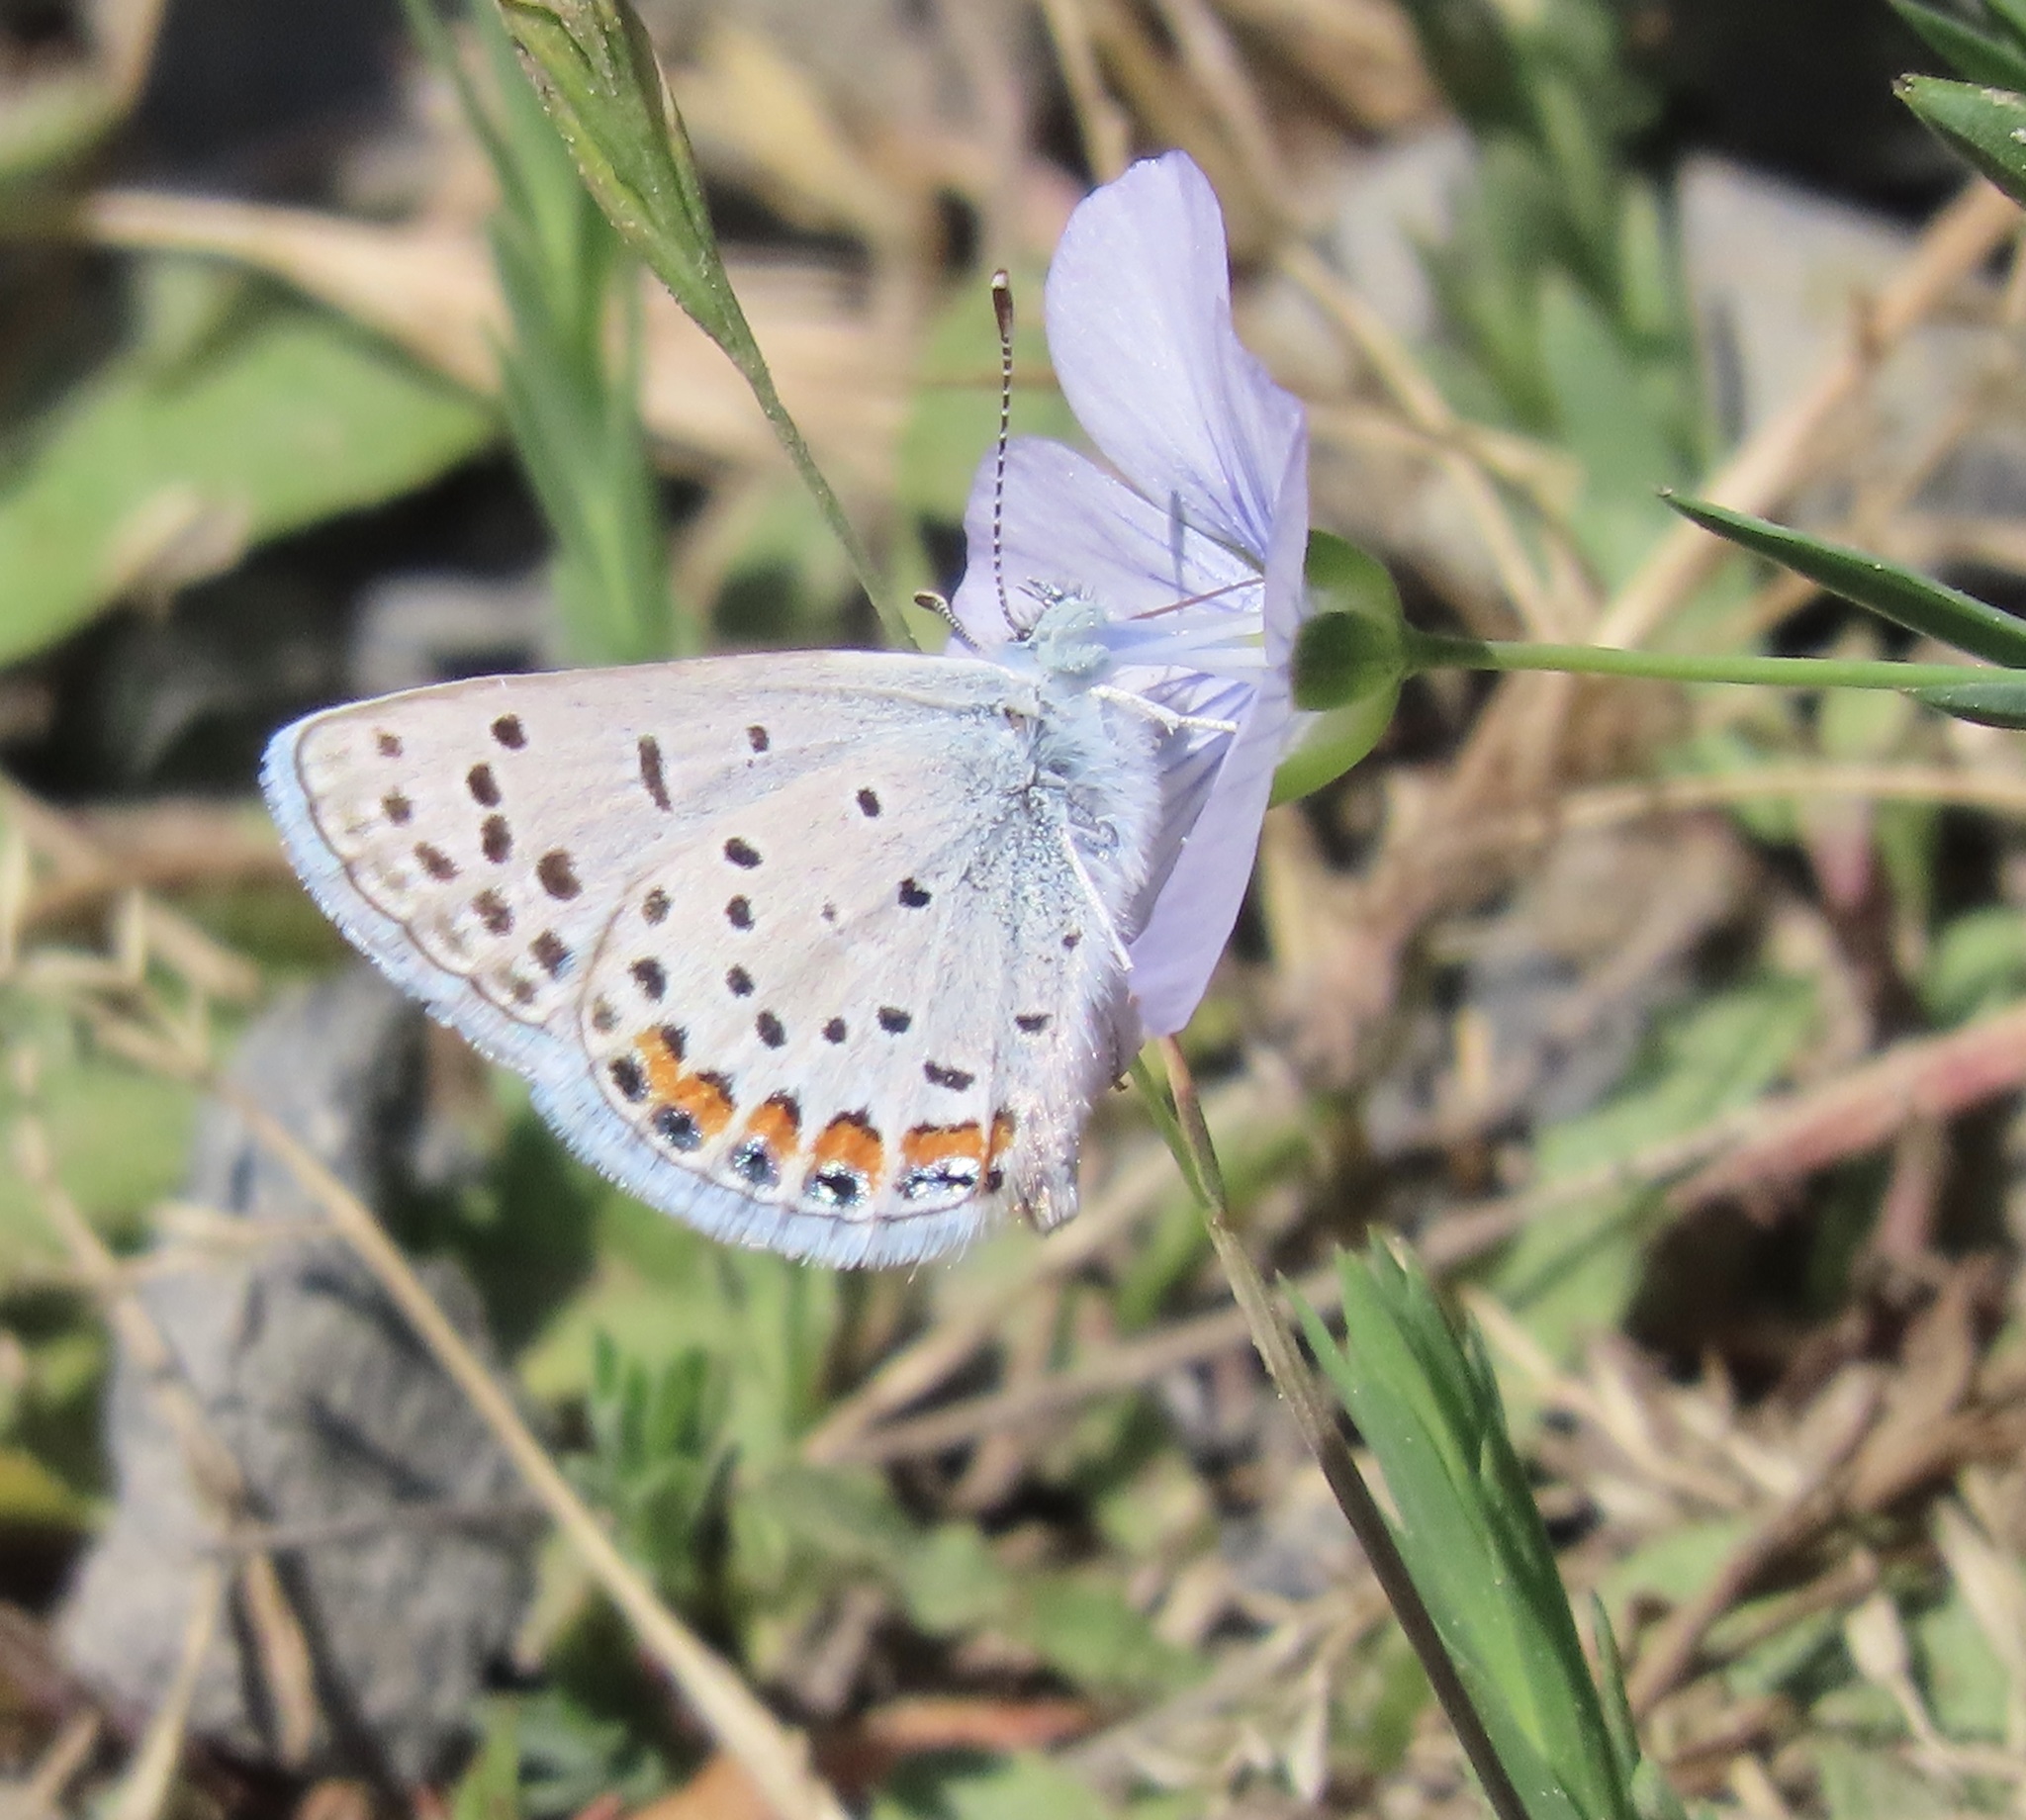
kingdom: Animalia
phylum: Arthropoda
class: Insecta
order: Lepidoptera
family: Lycaenidae
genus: Icaricia
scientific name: Icaricia acmon
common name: Acmon blue
